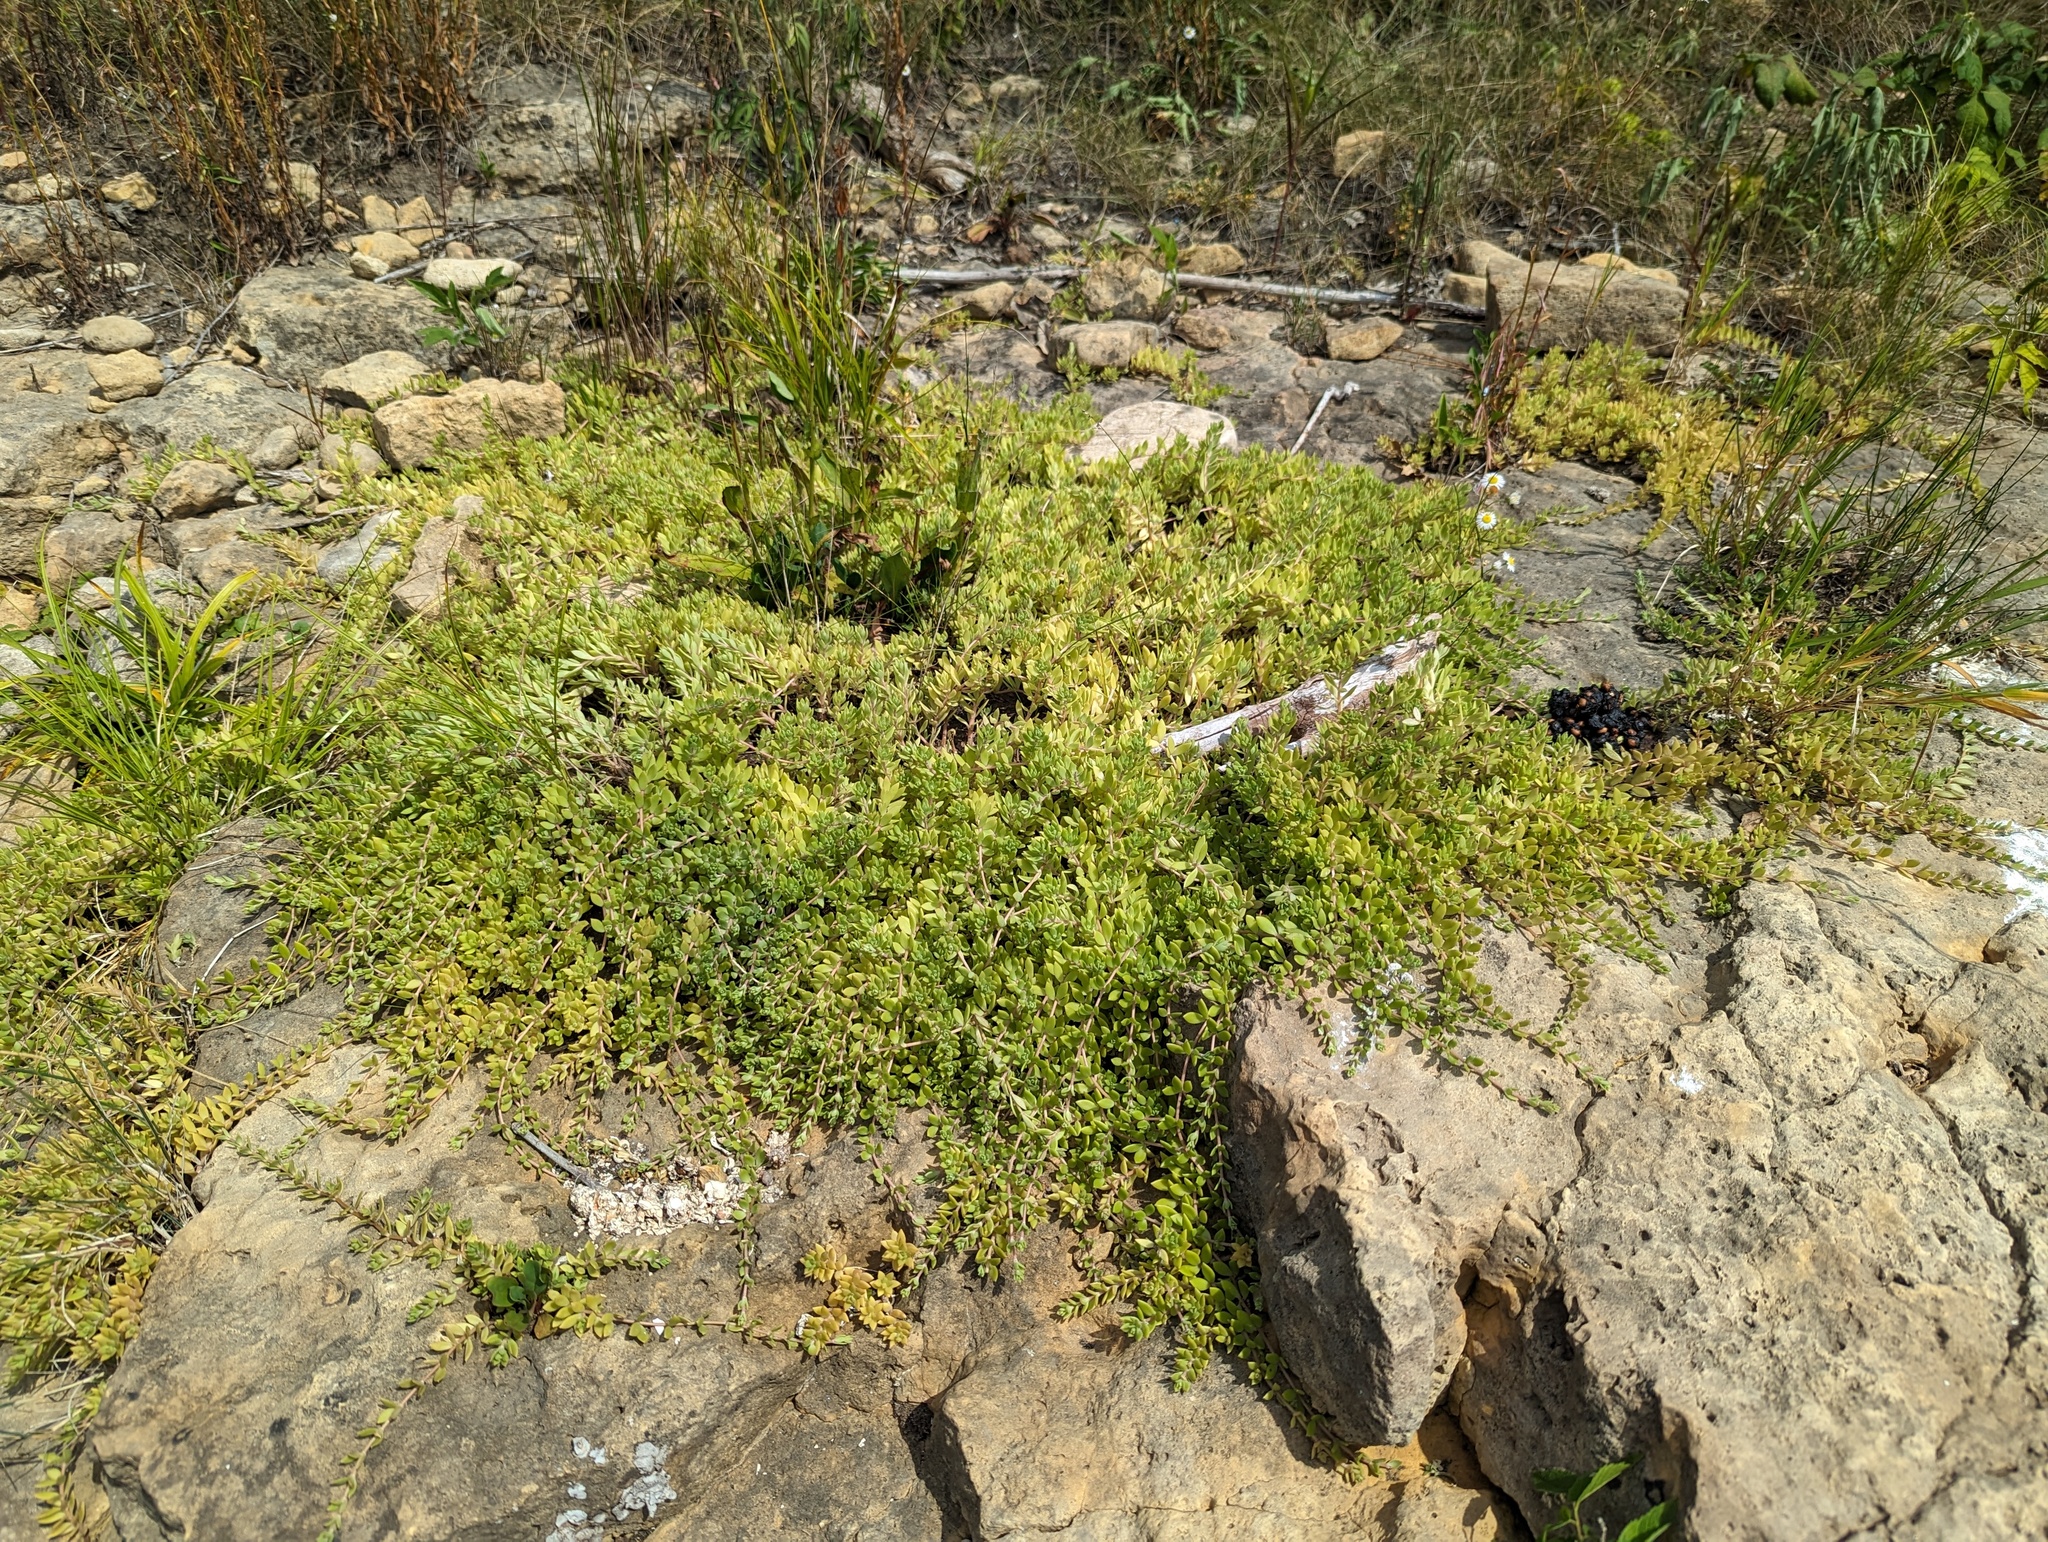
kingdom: Plantae
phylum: Tracheophyta
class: Magnoliopsida
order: Saxifragales
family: Crassulaceae
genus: Sedum
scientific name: Sedum sarmentosum
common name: Stringy stonecrop
